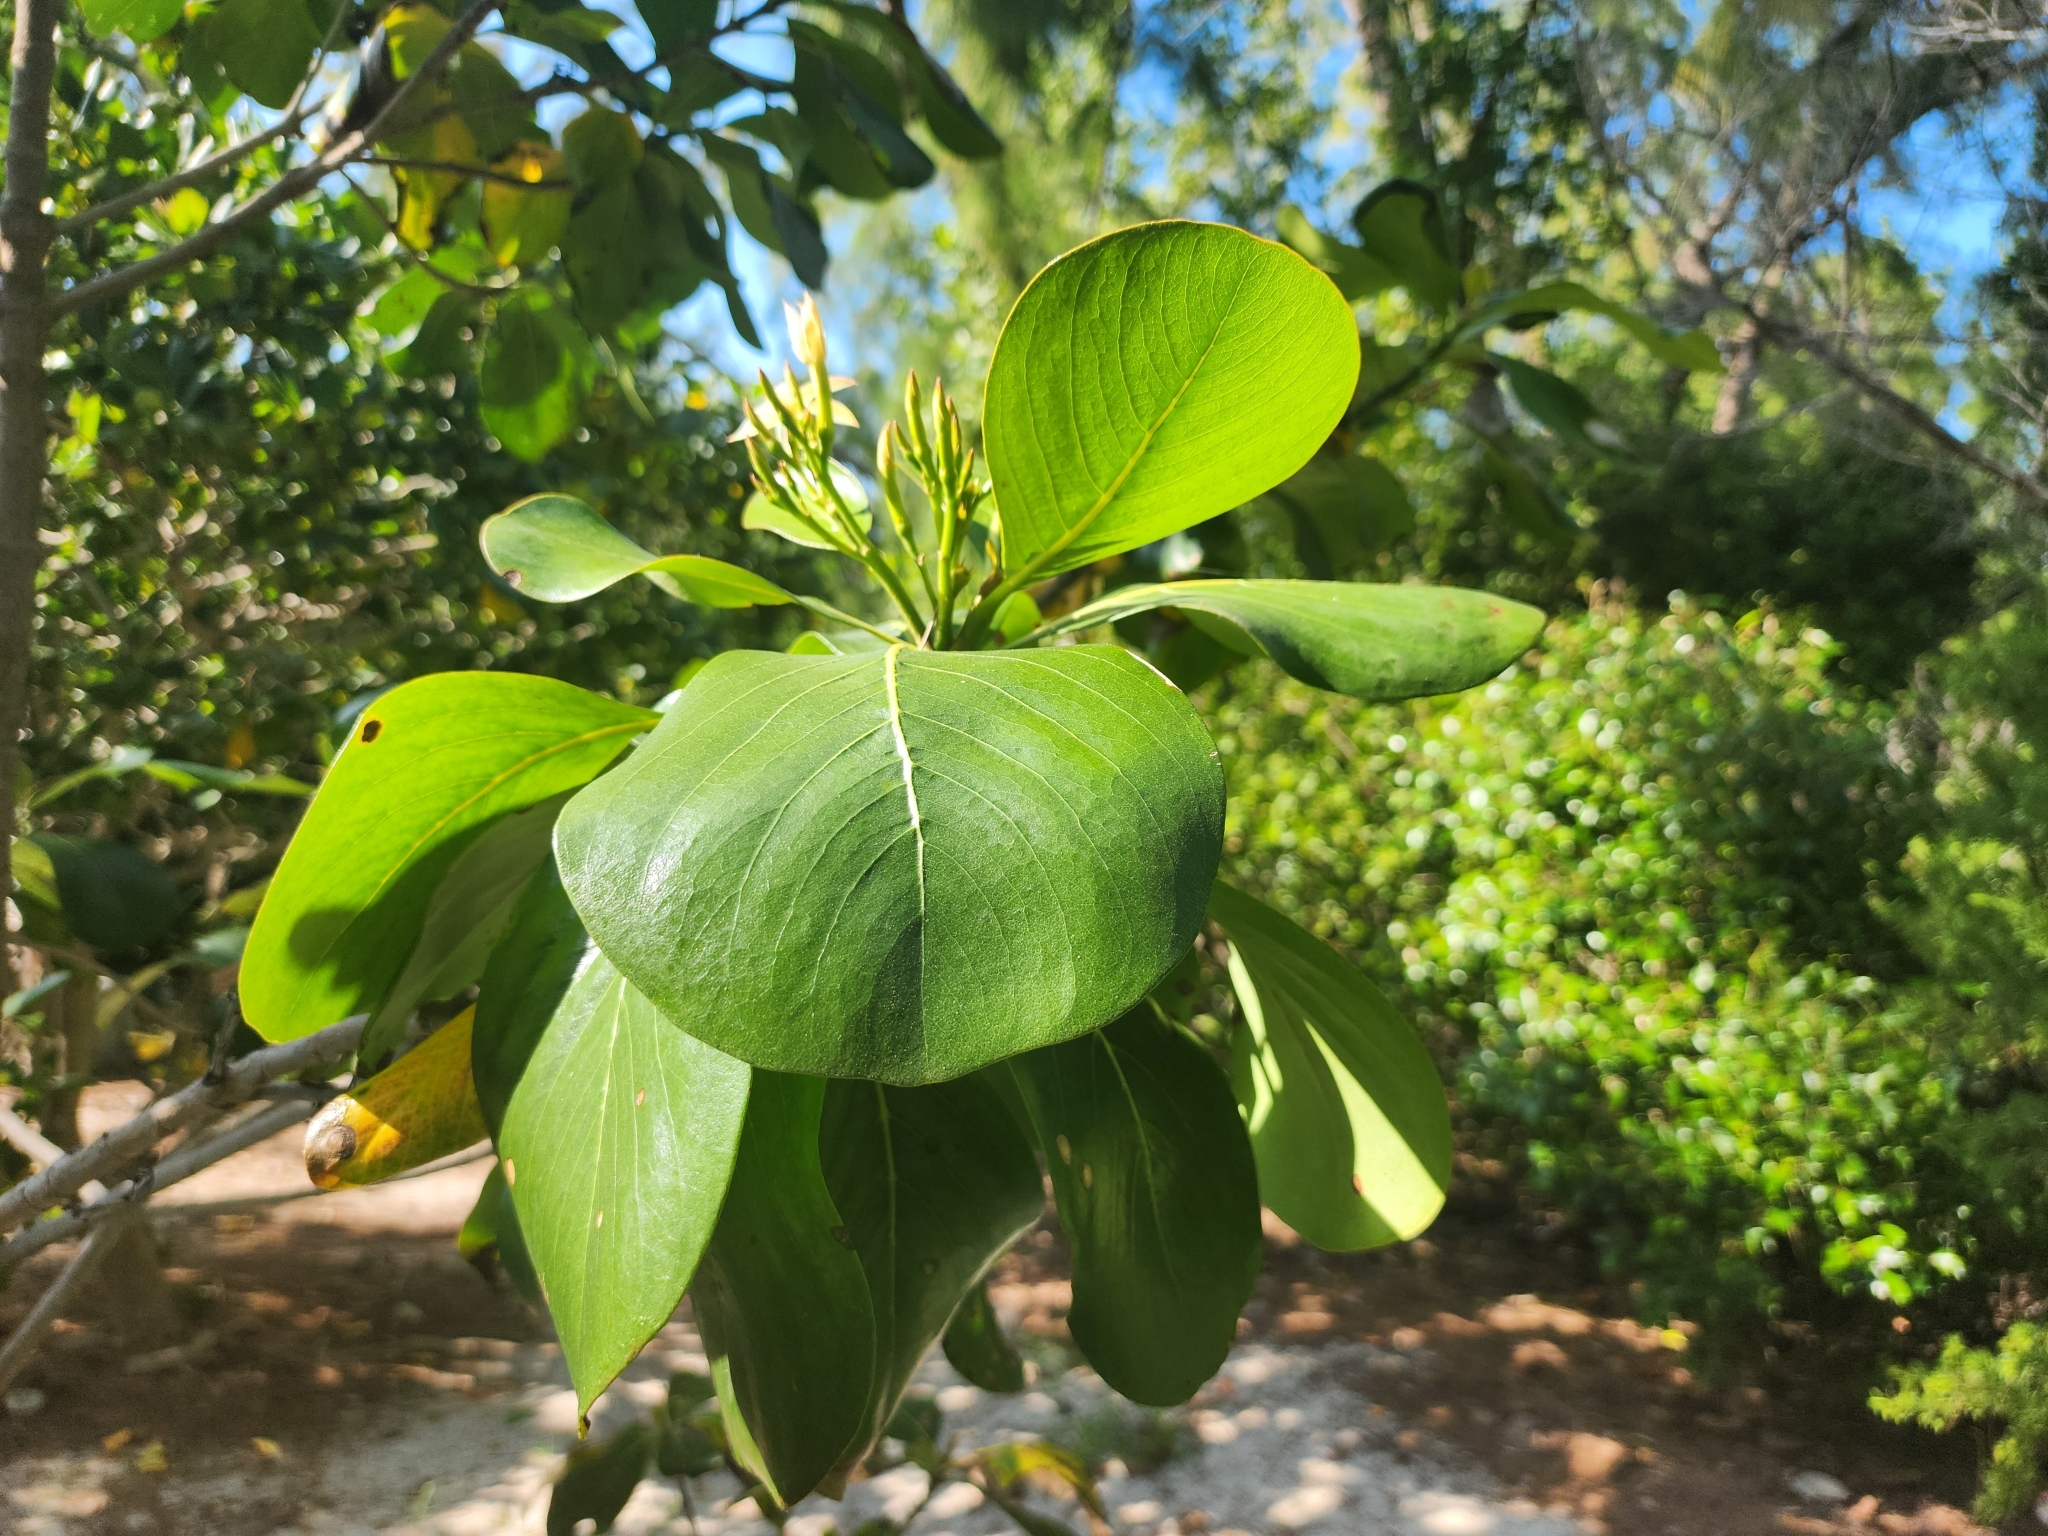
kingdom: Plantae
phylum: Tracheophyta
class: Magnoliopsida
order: Gentianales
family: Rubiaceae
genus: Casasia
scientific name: Casasia clusiifolia
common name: Seven-year apple
